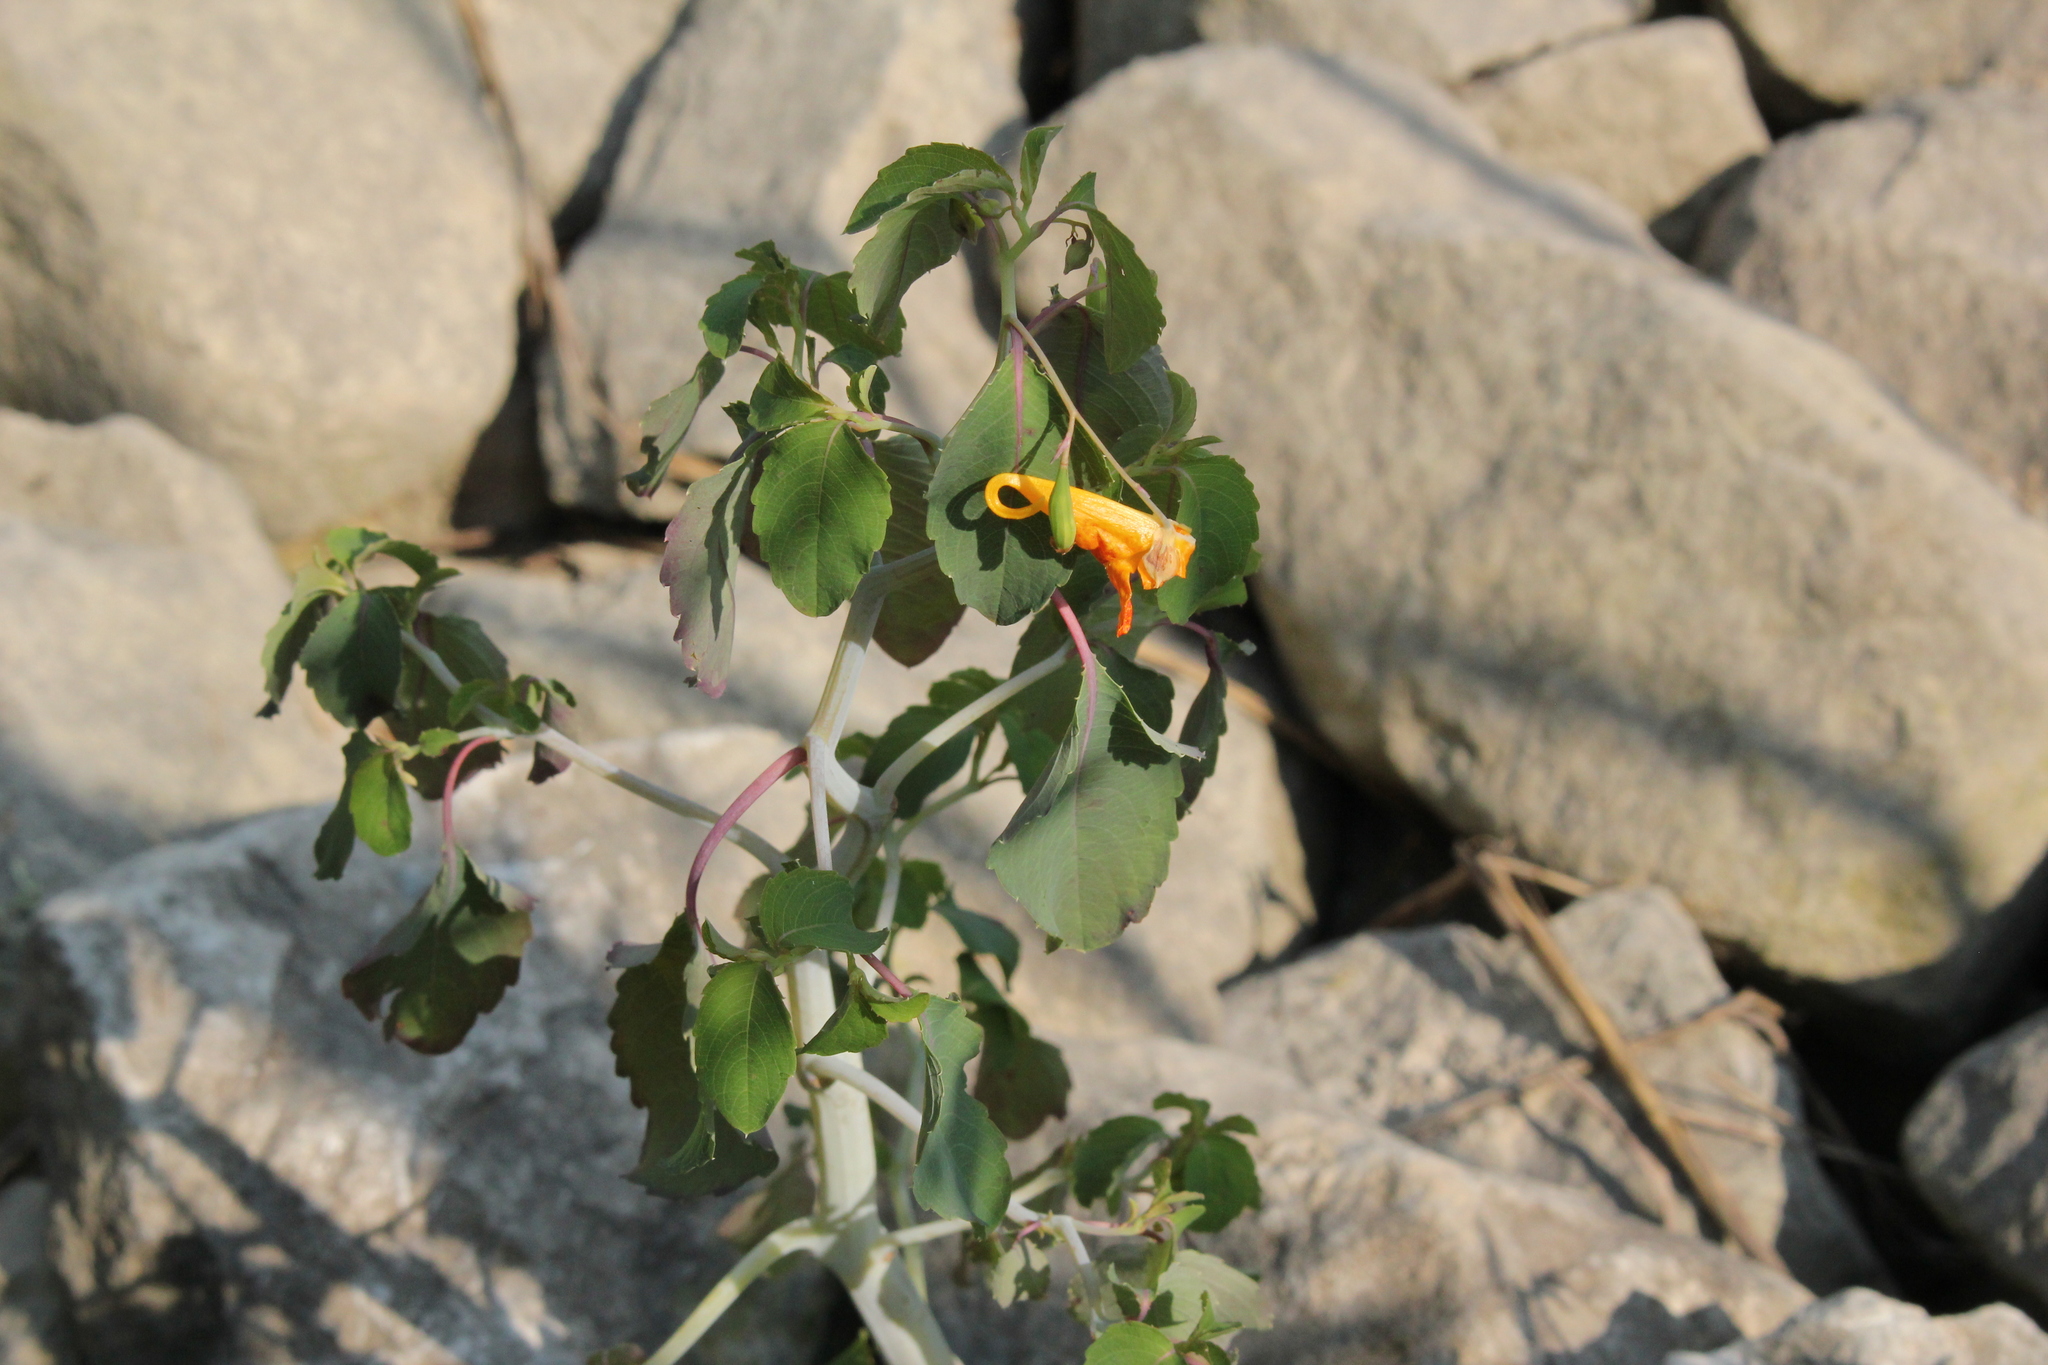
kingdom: Plantae
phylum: Tracheophyta
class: Magnoliopsida
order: Ericales
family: Balsaminaceae
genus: Impatiens
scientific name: Impatiens capensis
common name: Orange balsam
